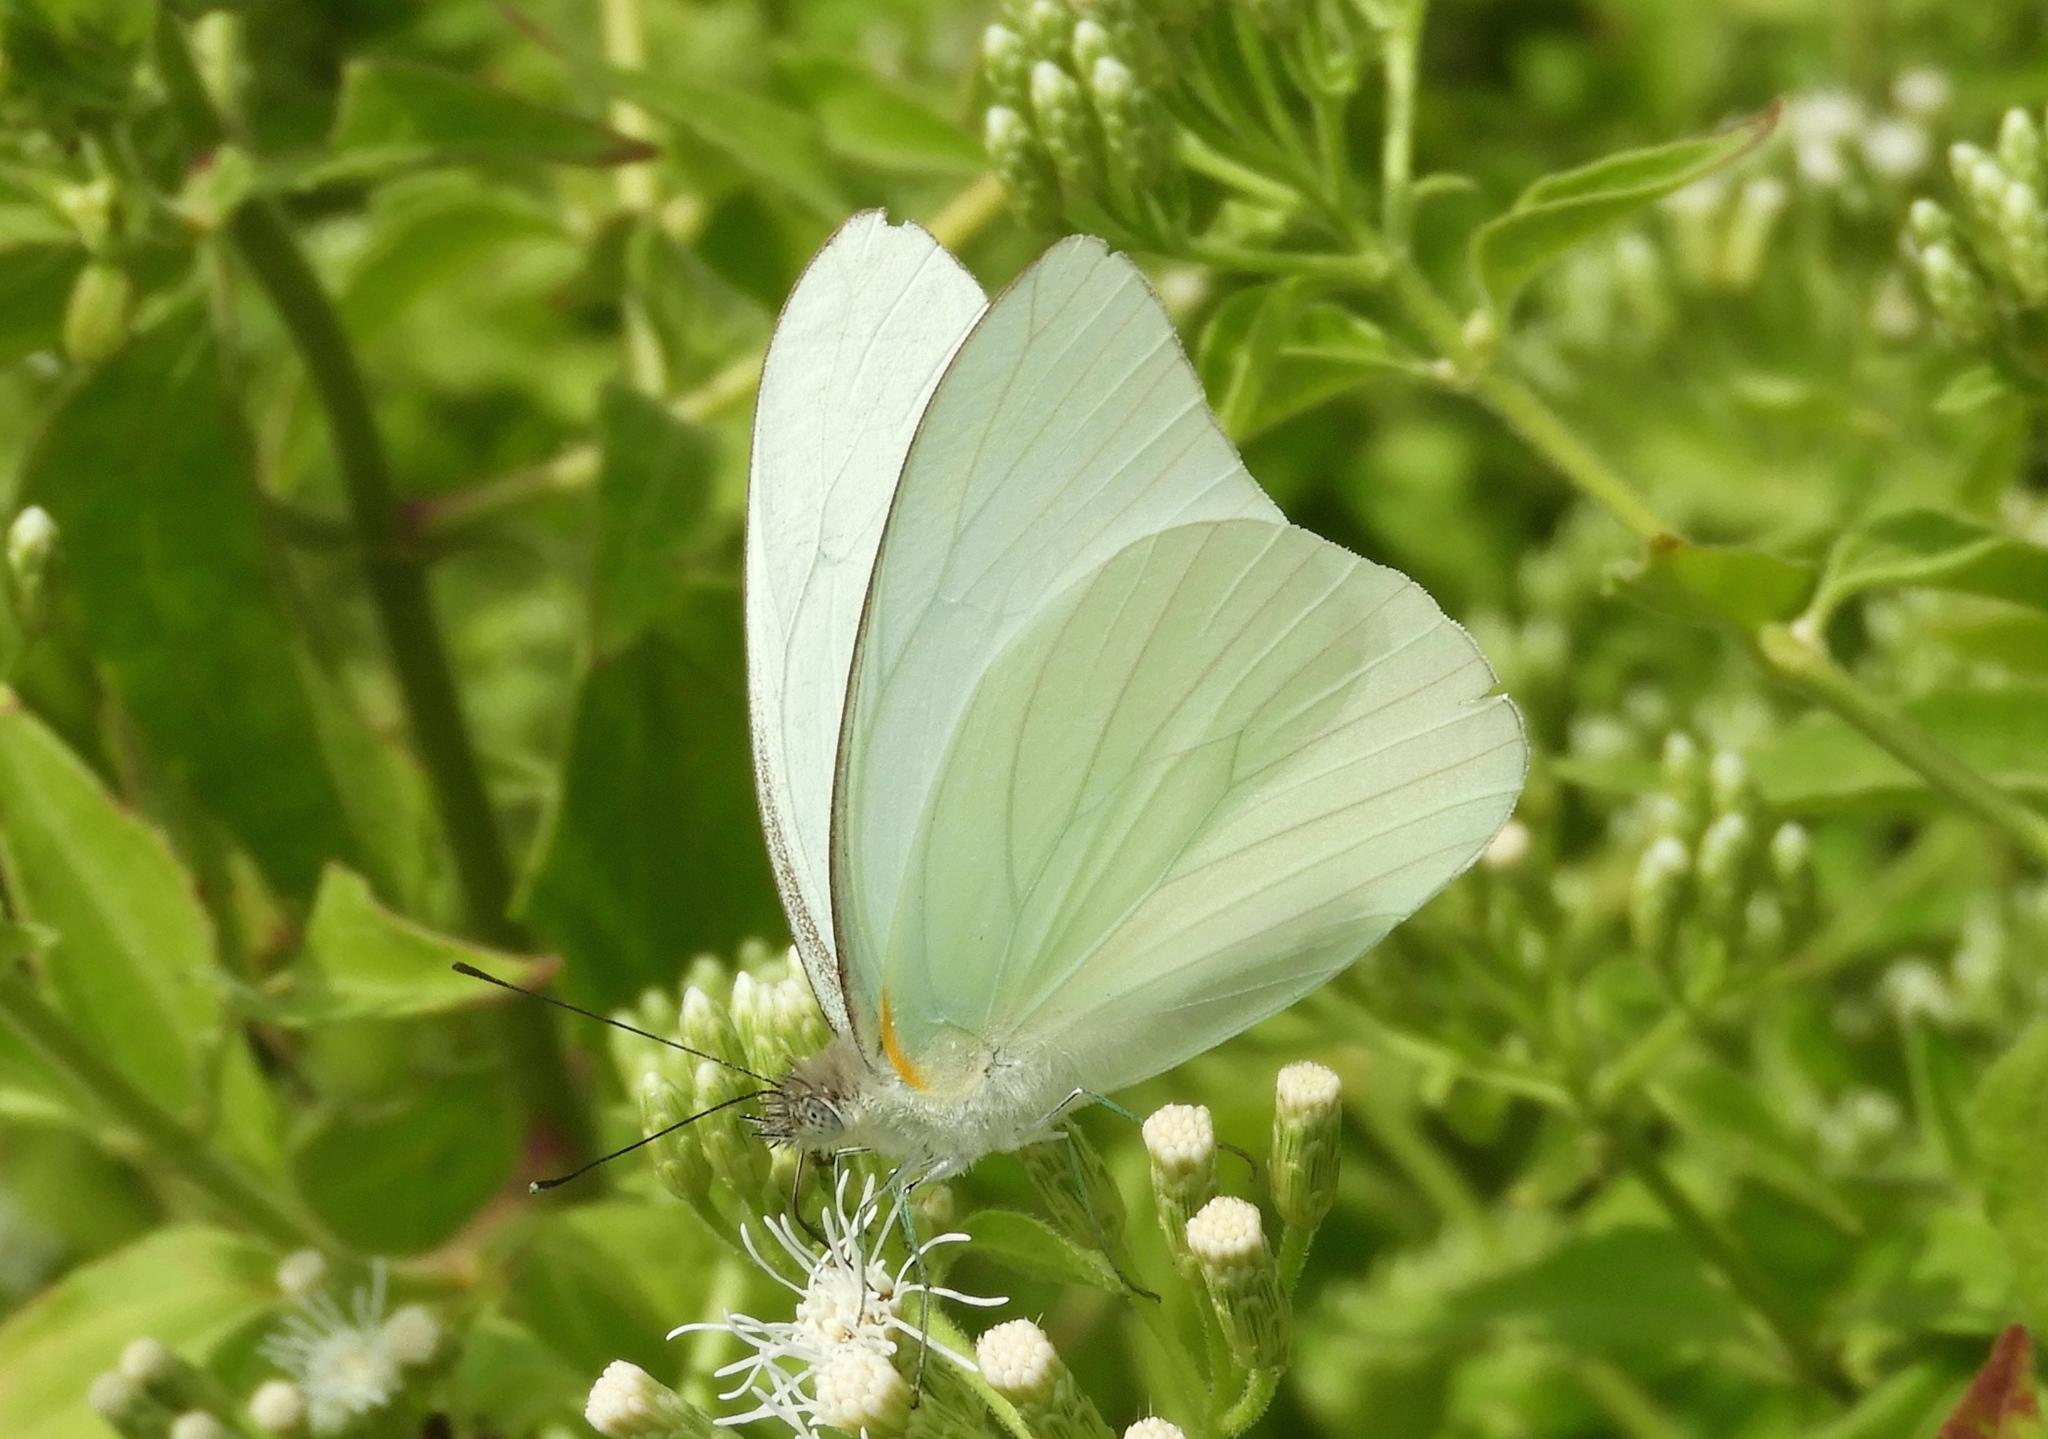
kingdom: Animalia
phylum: Arthropoda
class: Insecta
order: Lepidoptera
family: Pieridae
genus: Glutophrissa
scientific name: Glutophrissa drusilla
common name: Florida white
